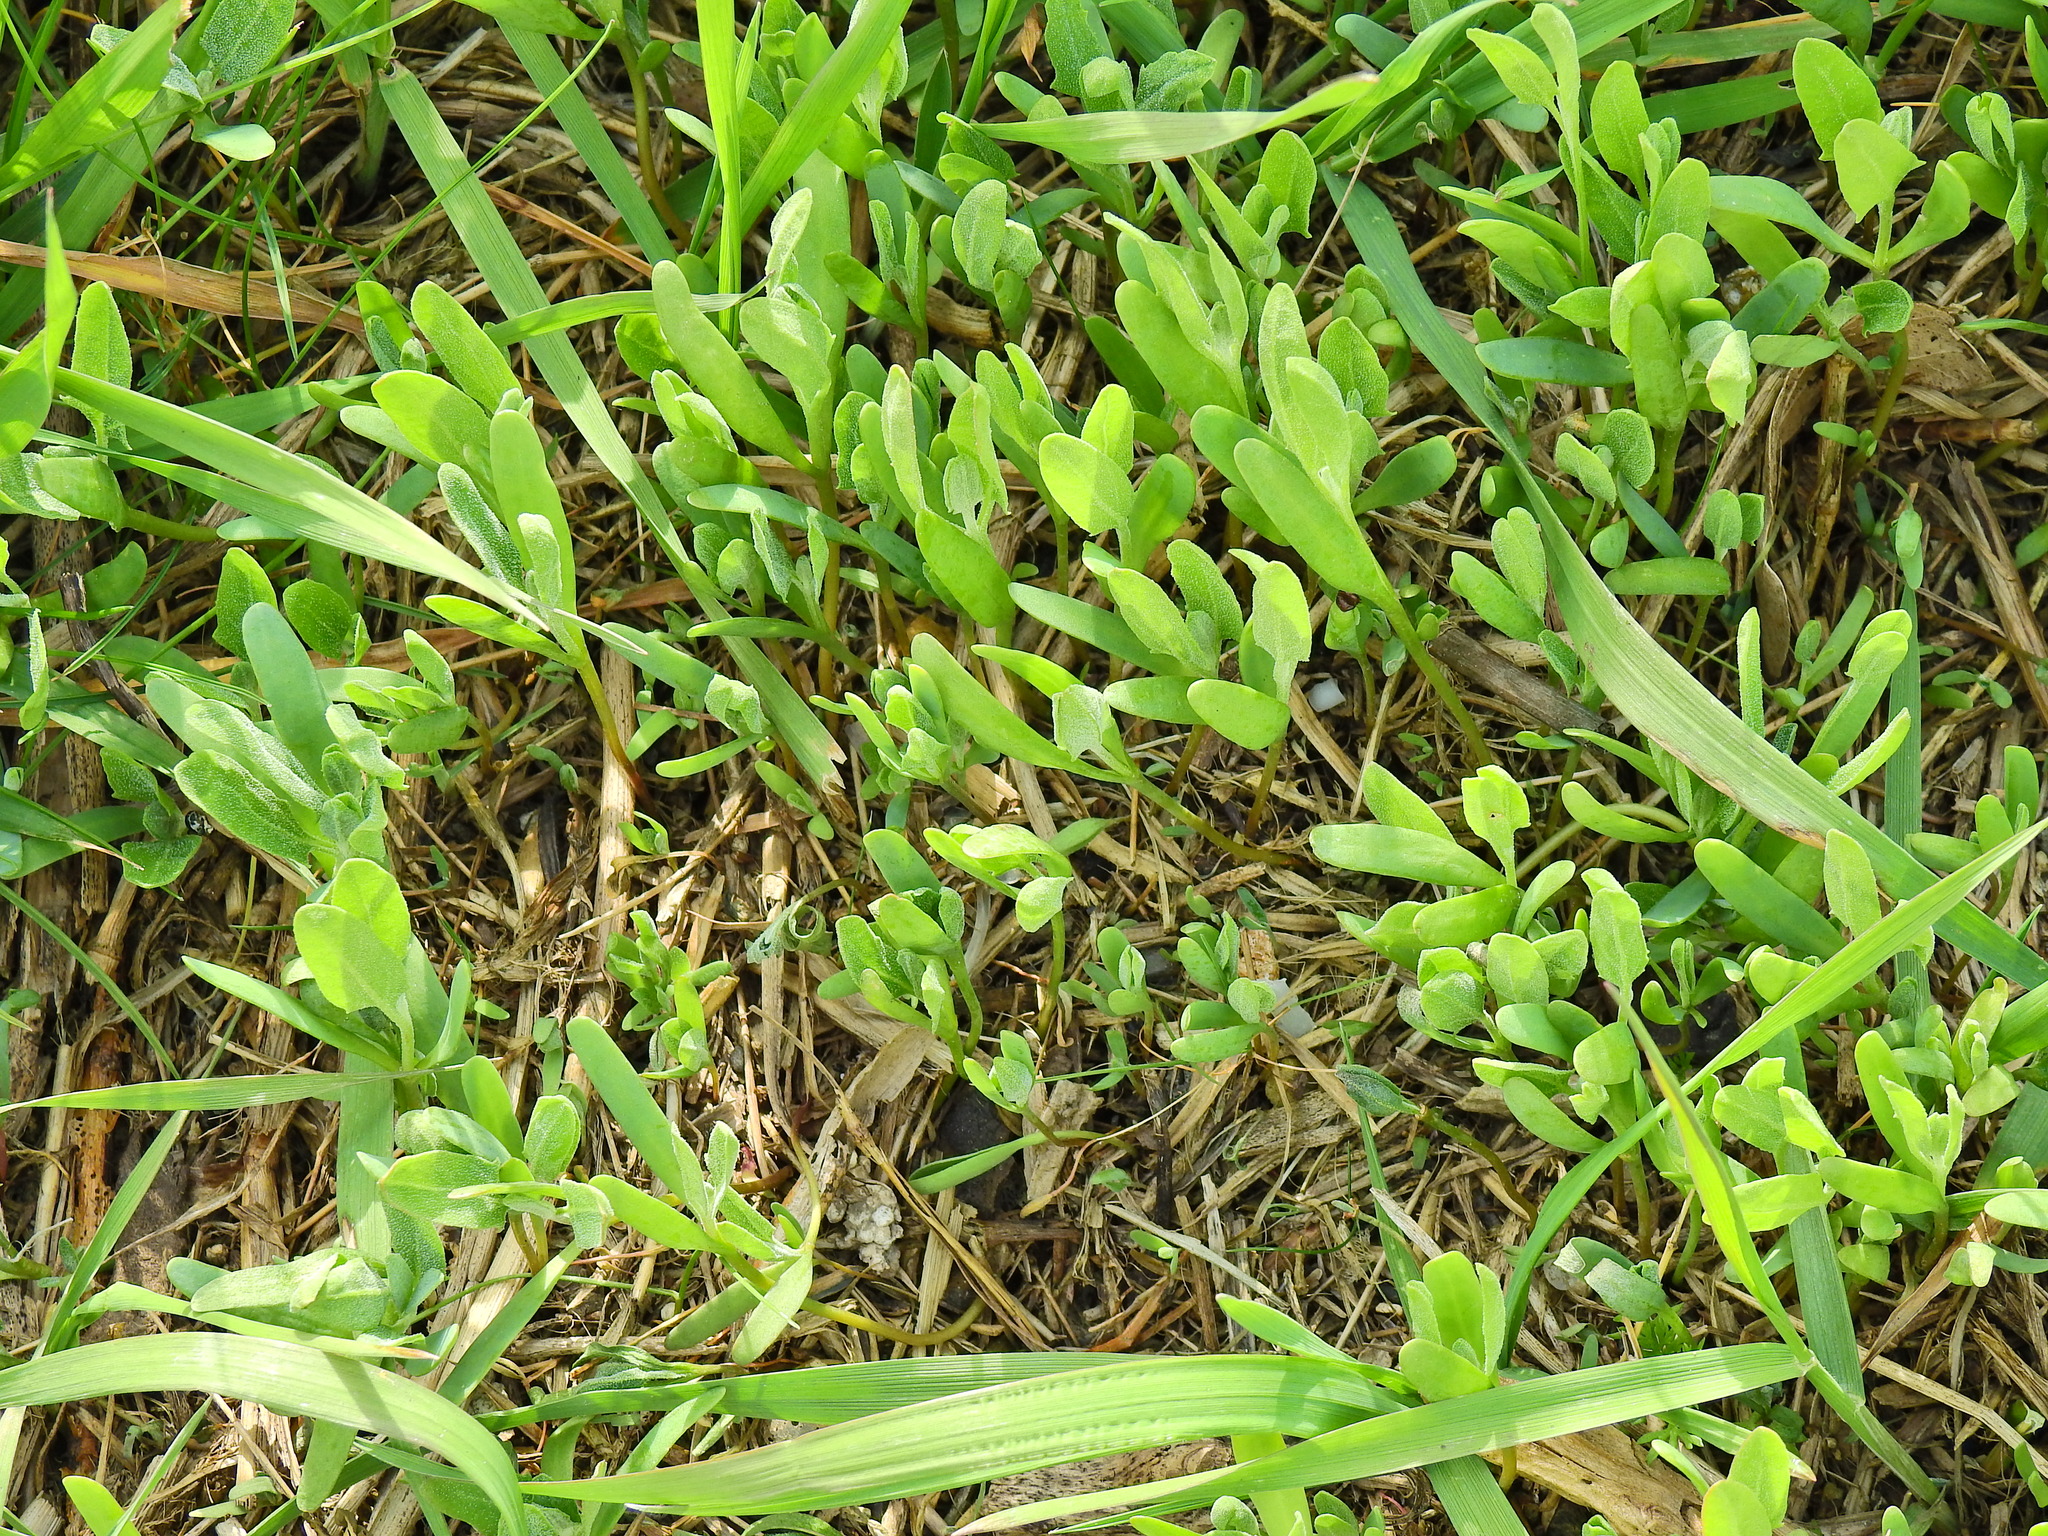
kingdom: Plantae
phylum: Tracheophyta
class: Magnoliopsida
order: Caryophyllales
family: Amaranthaceae
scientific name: Amaranthaceae
